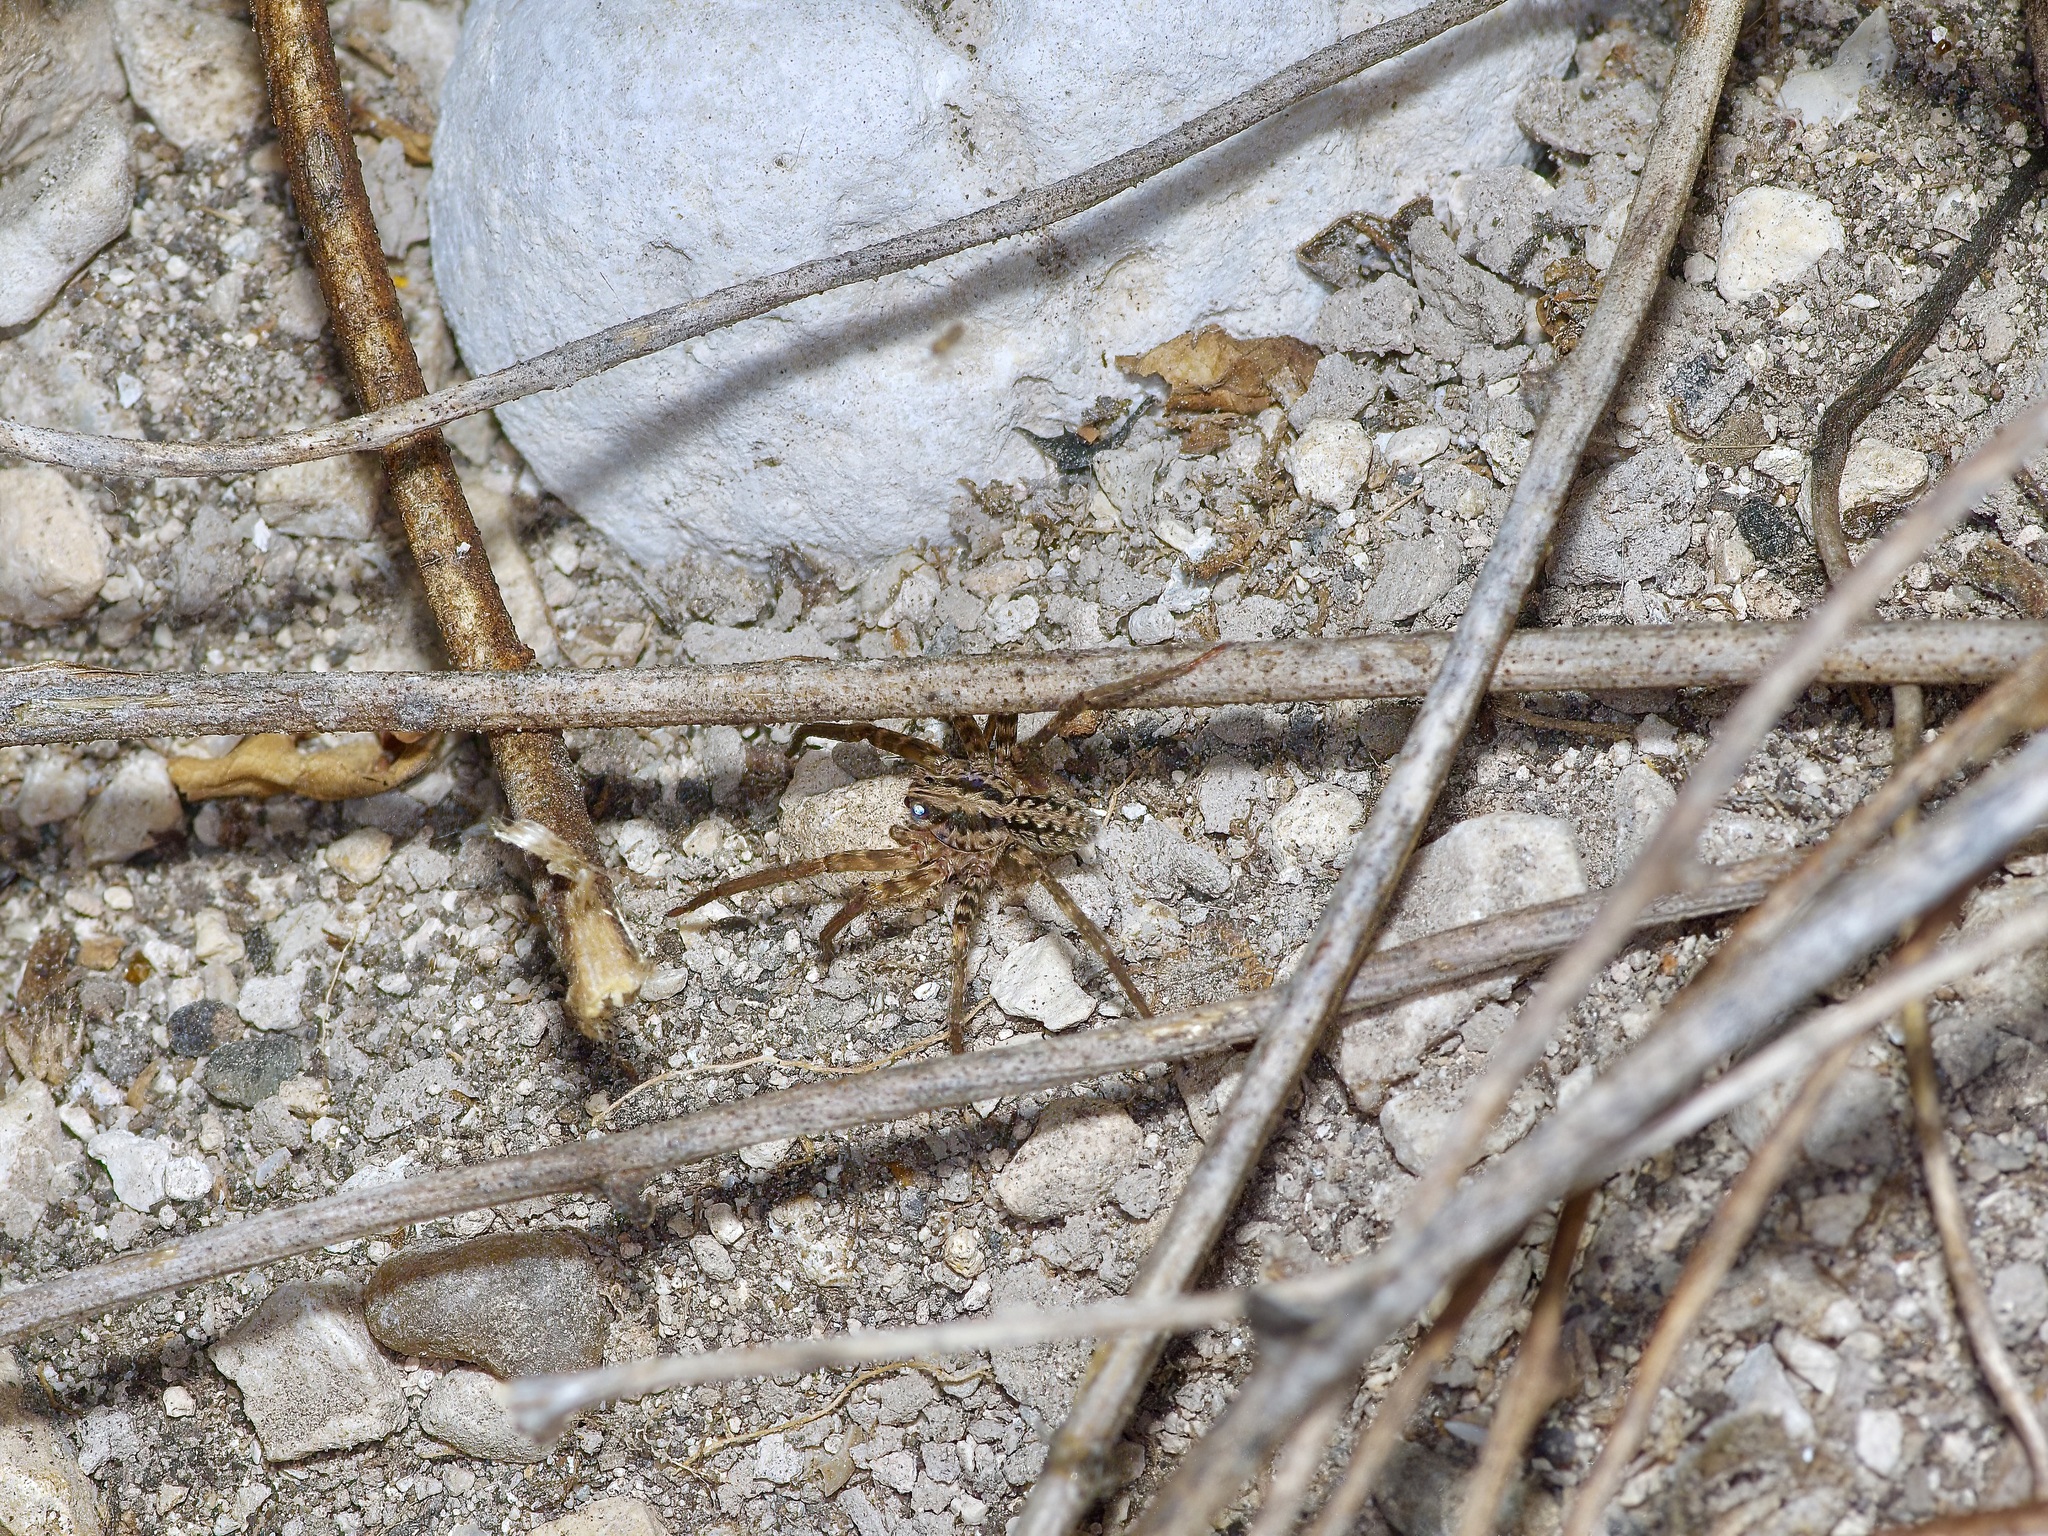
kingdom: Animalia
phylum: Arthropoda
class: Arachnida
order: Araneae
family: Ctenidae
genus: Leptoctenus
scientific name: Leptoctenus byrrhus
